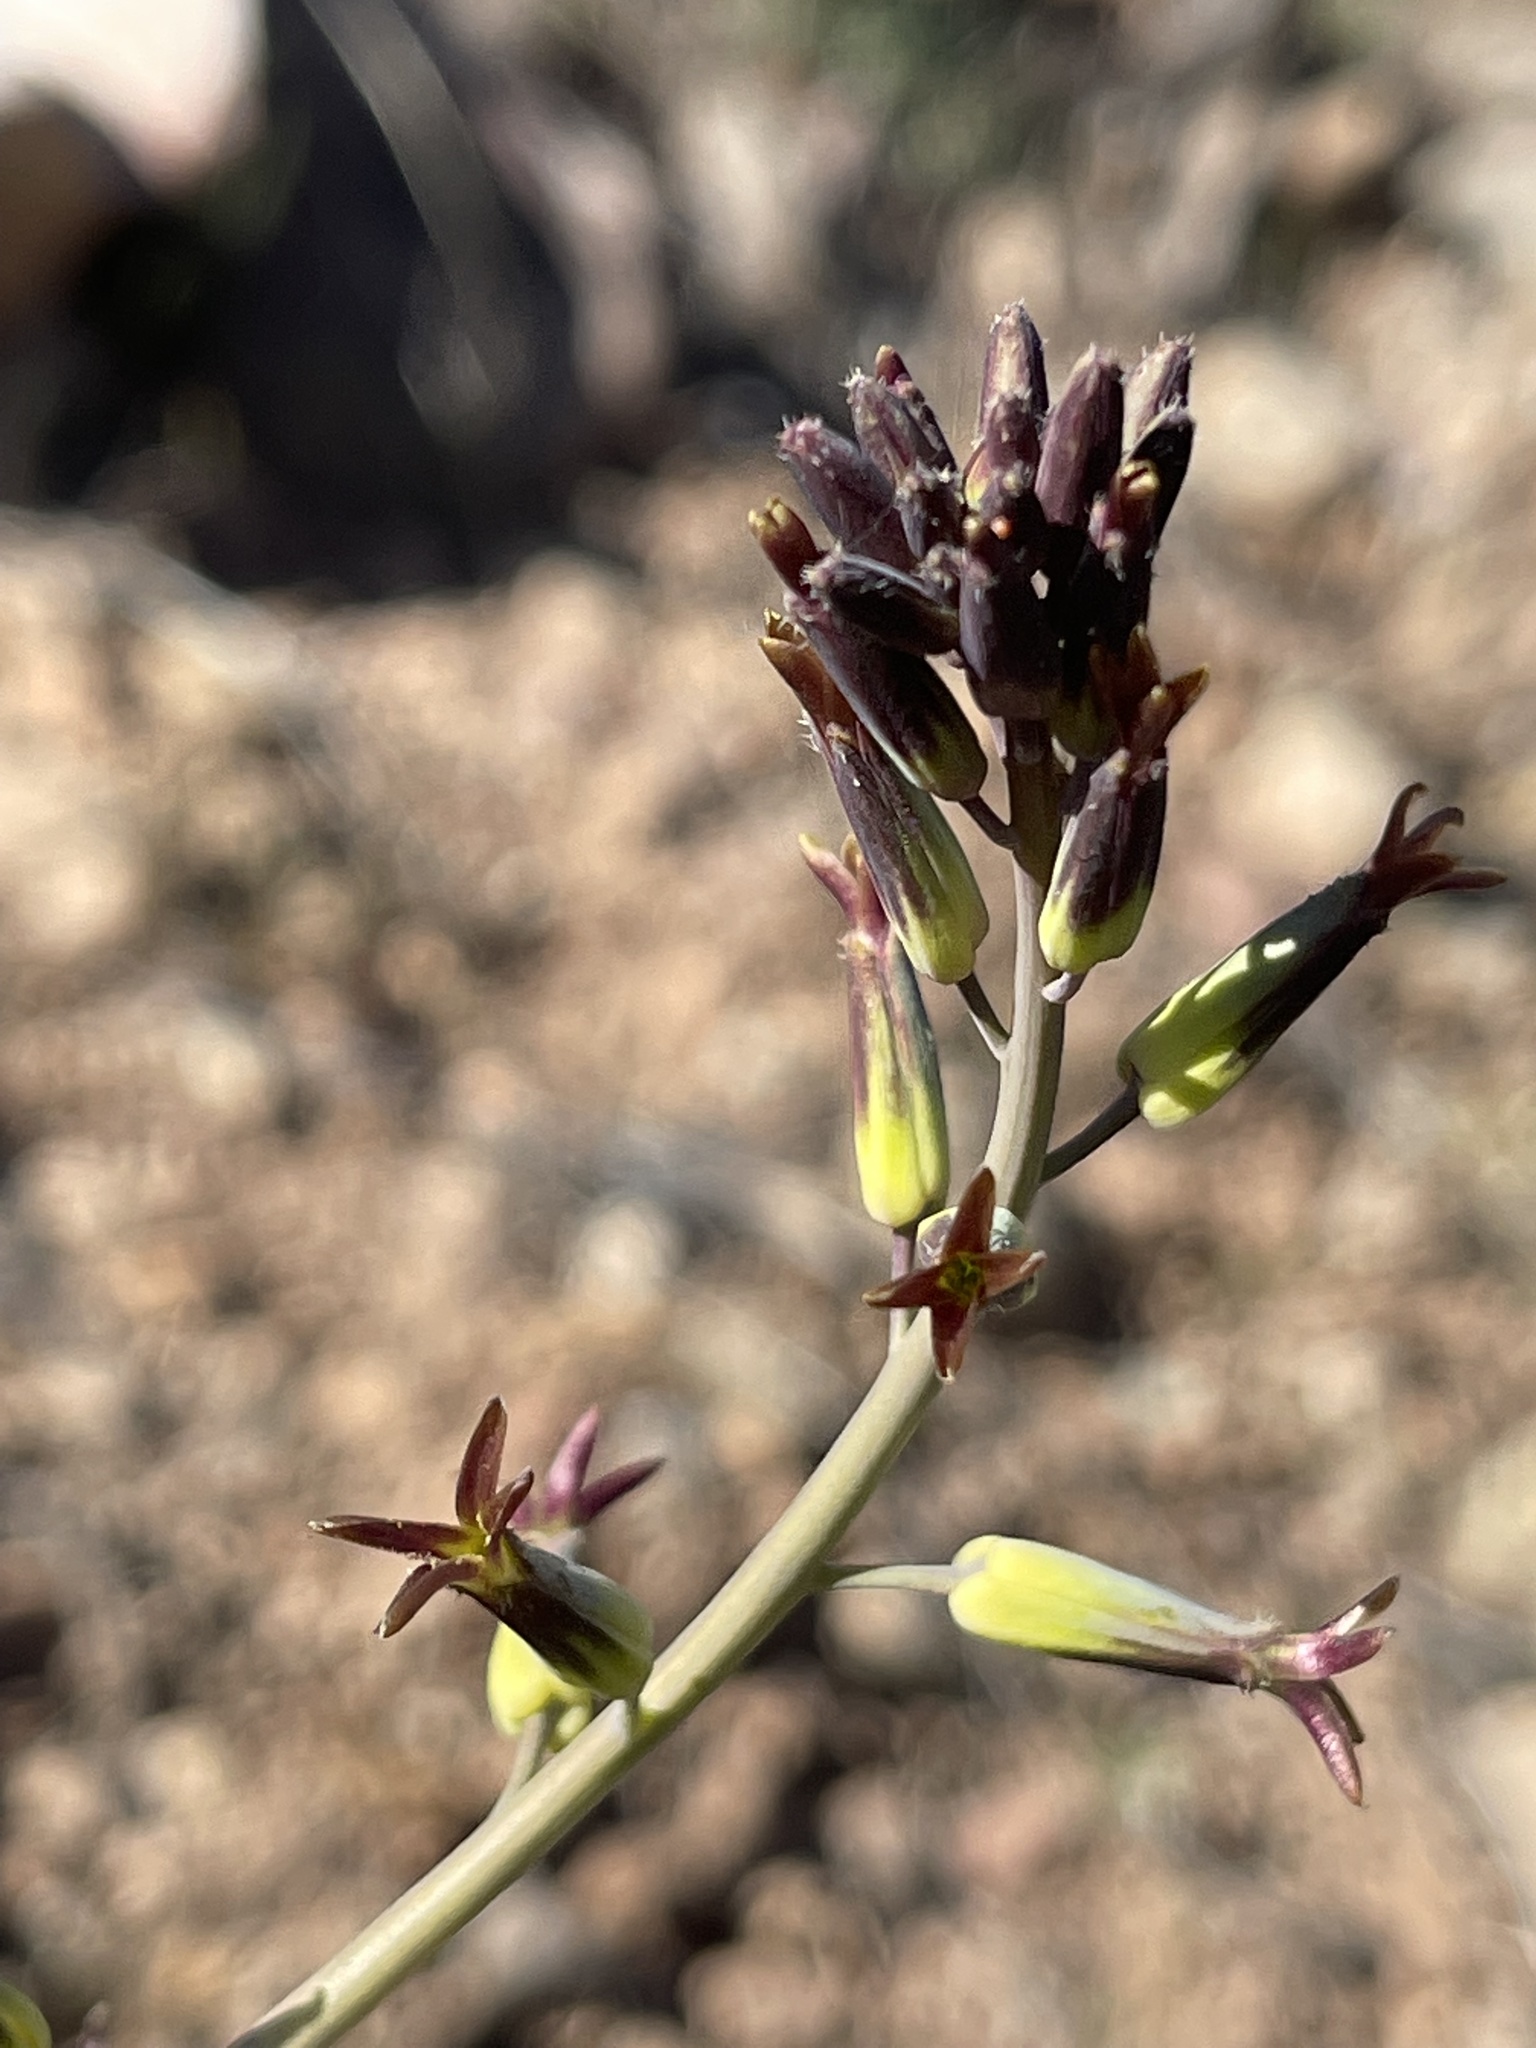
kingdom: Plantae
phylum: Tracheophyta
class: Magnoliopsida
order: Brassicales
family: Brassicaceae
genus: Streptanthus
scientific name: Streptanthus cordatus
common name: Heart-leaf jewel-flower
